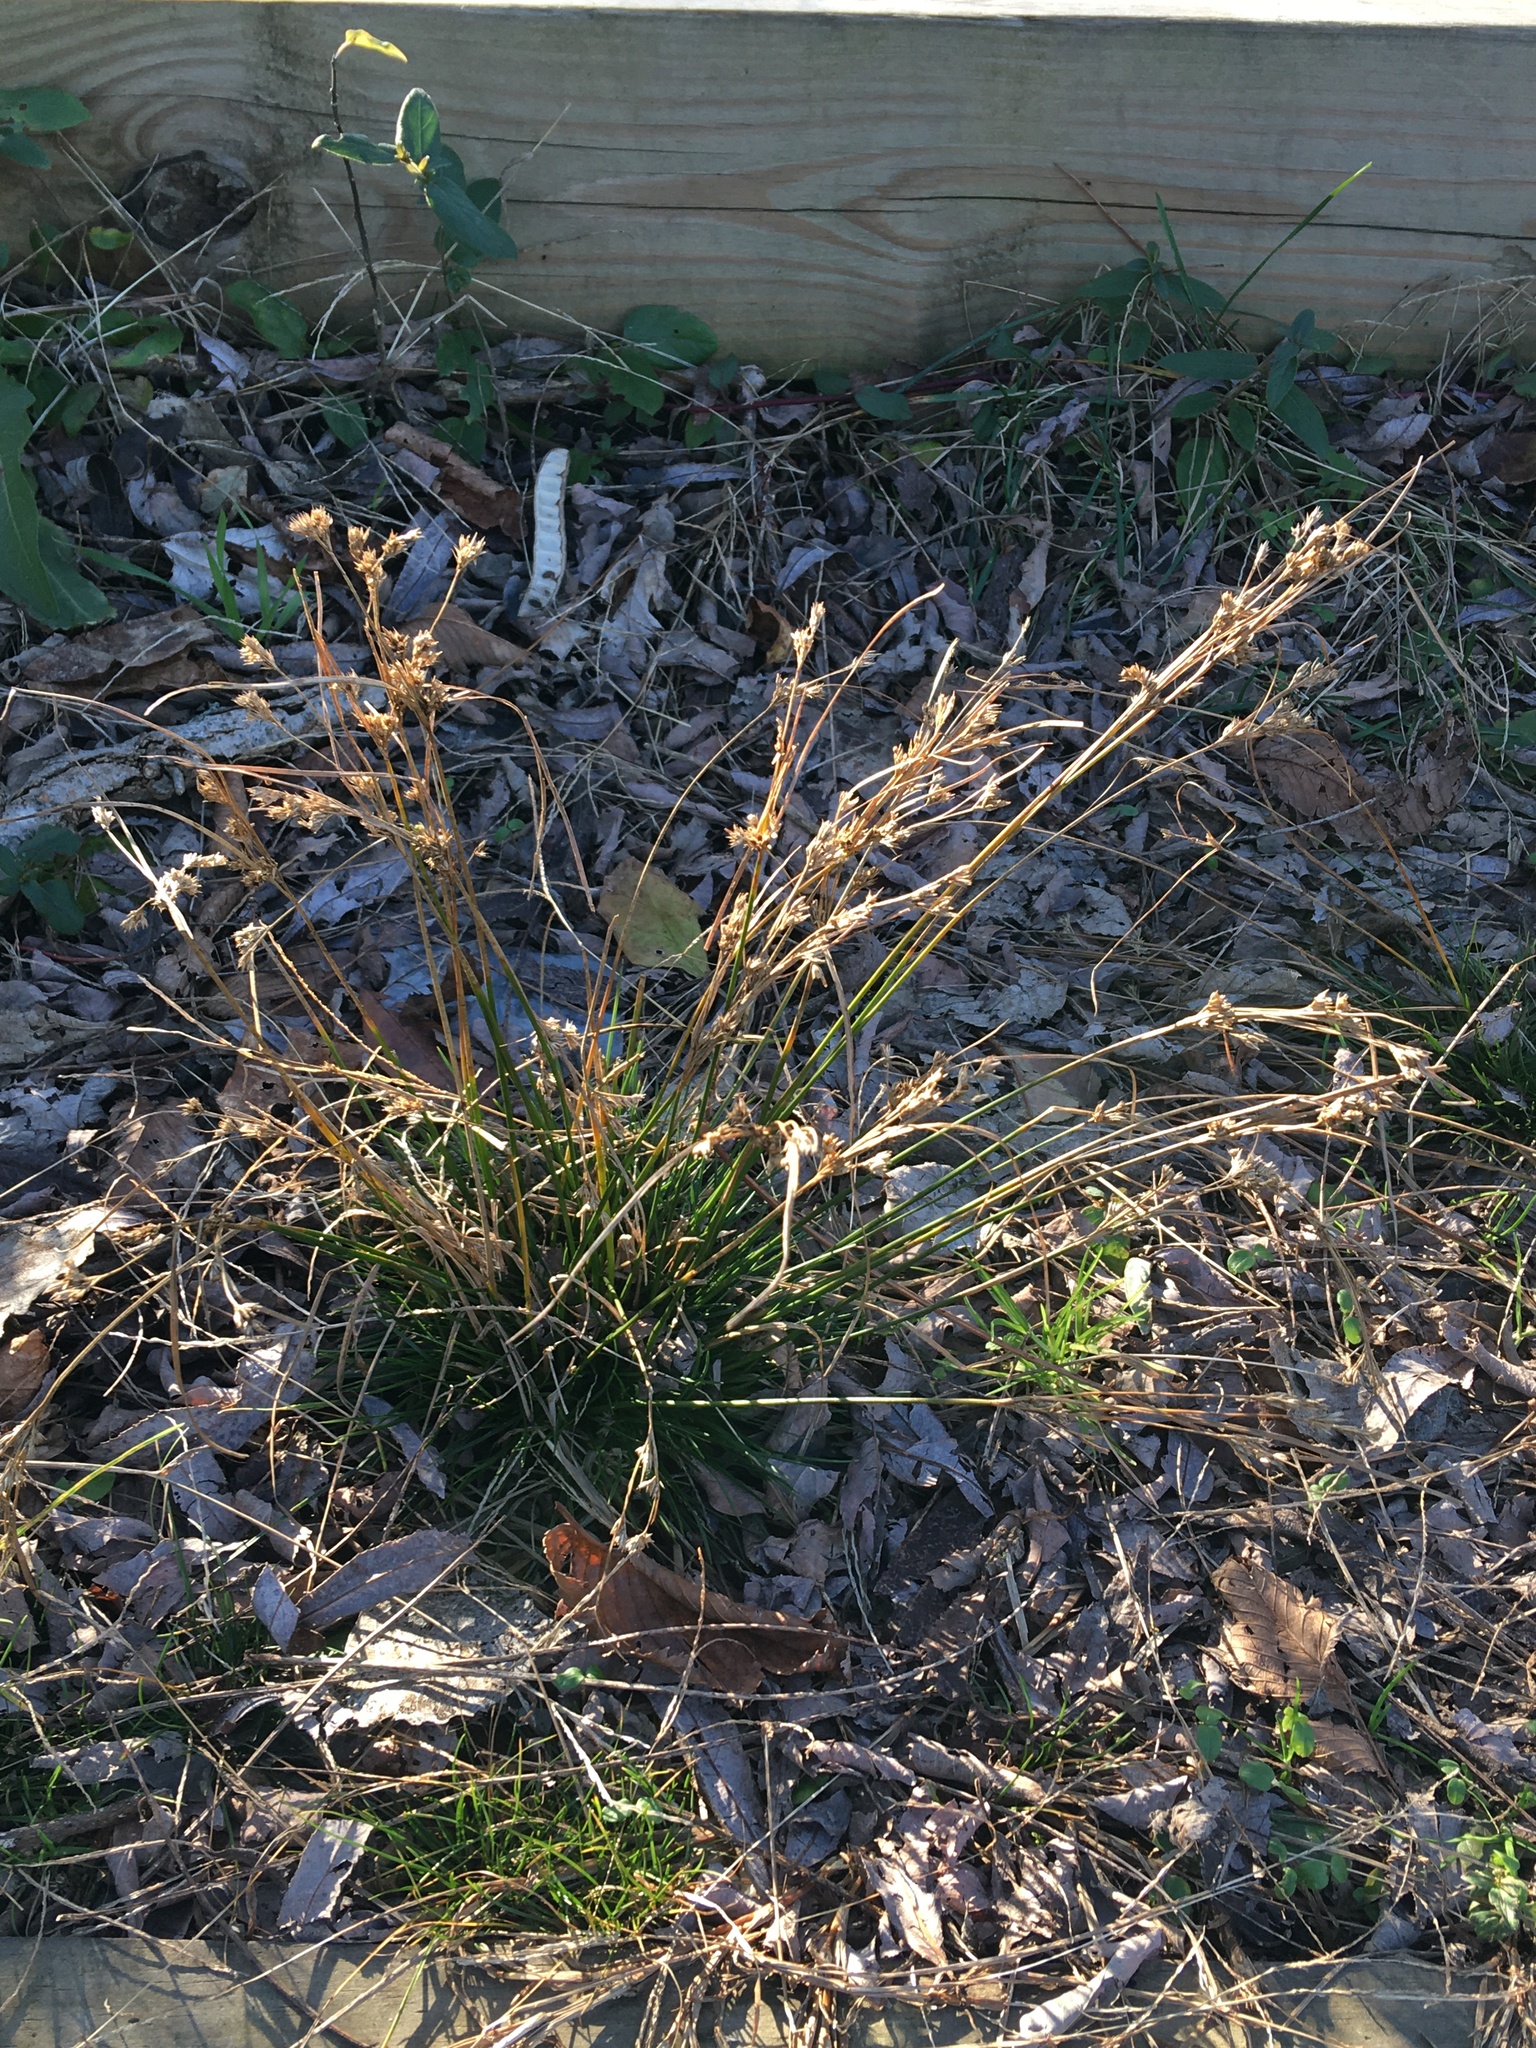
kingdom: Plantae
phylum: Tracheophyta
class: Liliopsida
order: Poales
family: Juncaceae
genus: Juncus
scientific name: Juncus tenuis
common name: Slender rush
